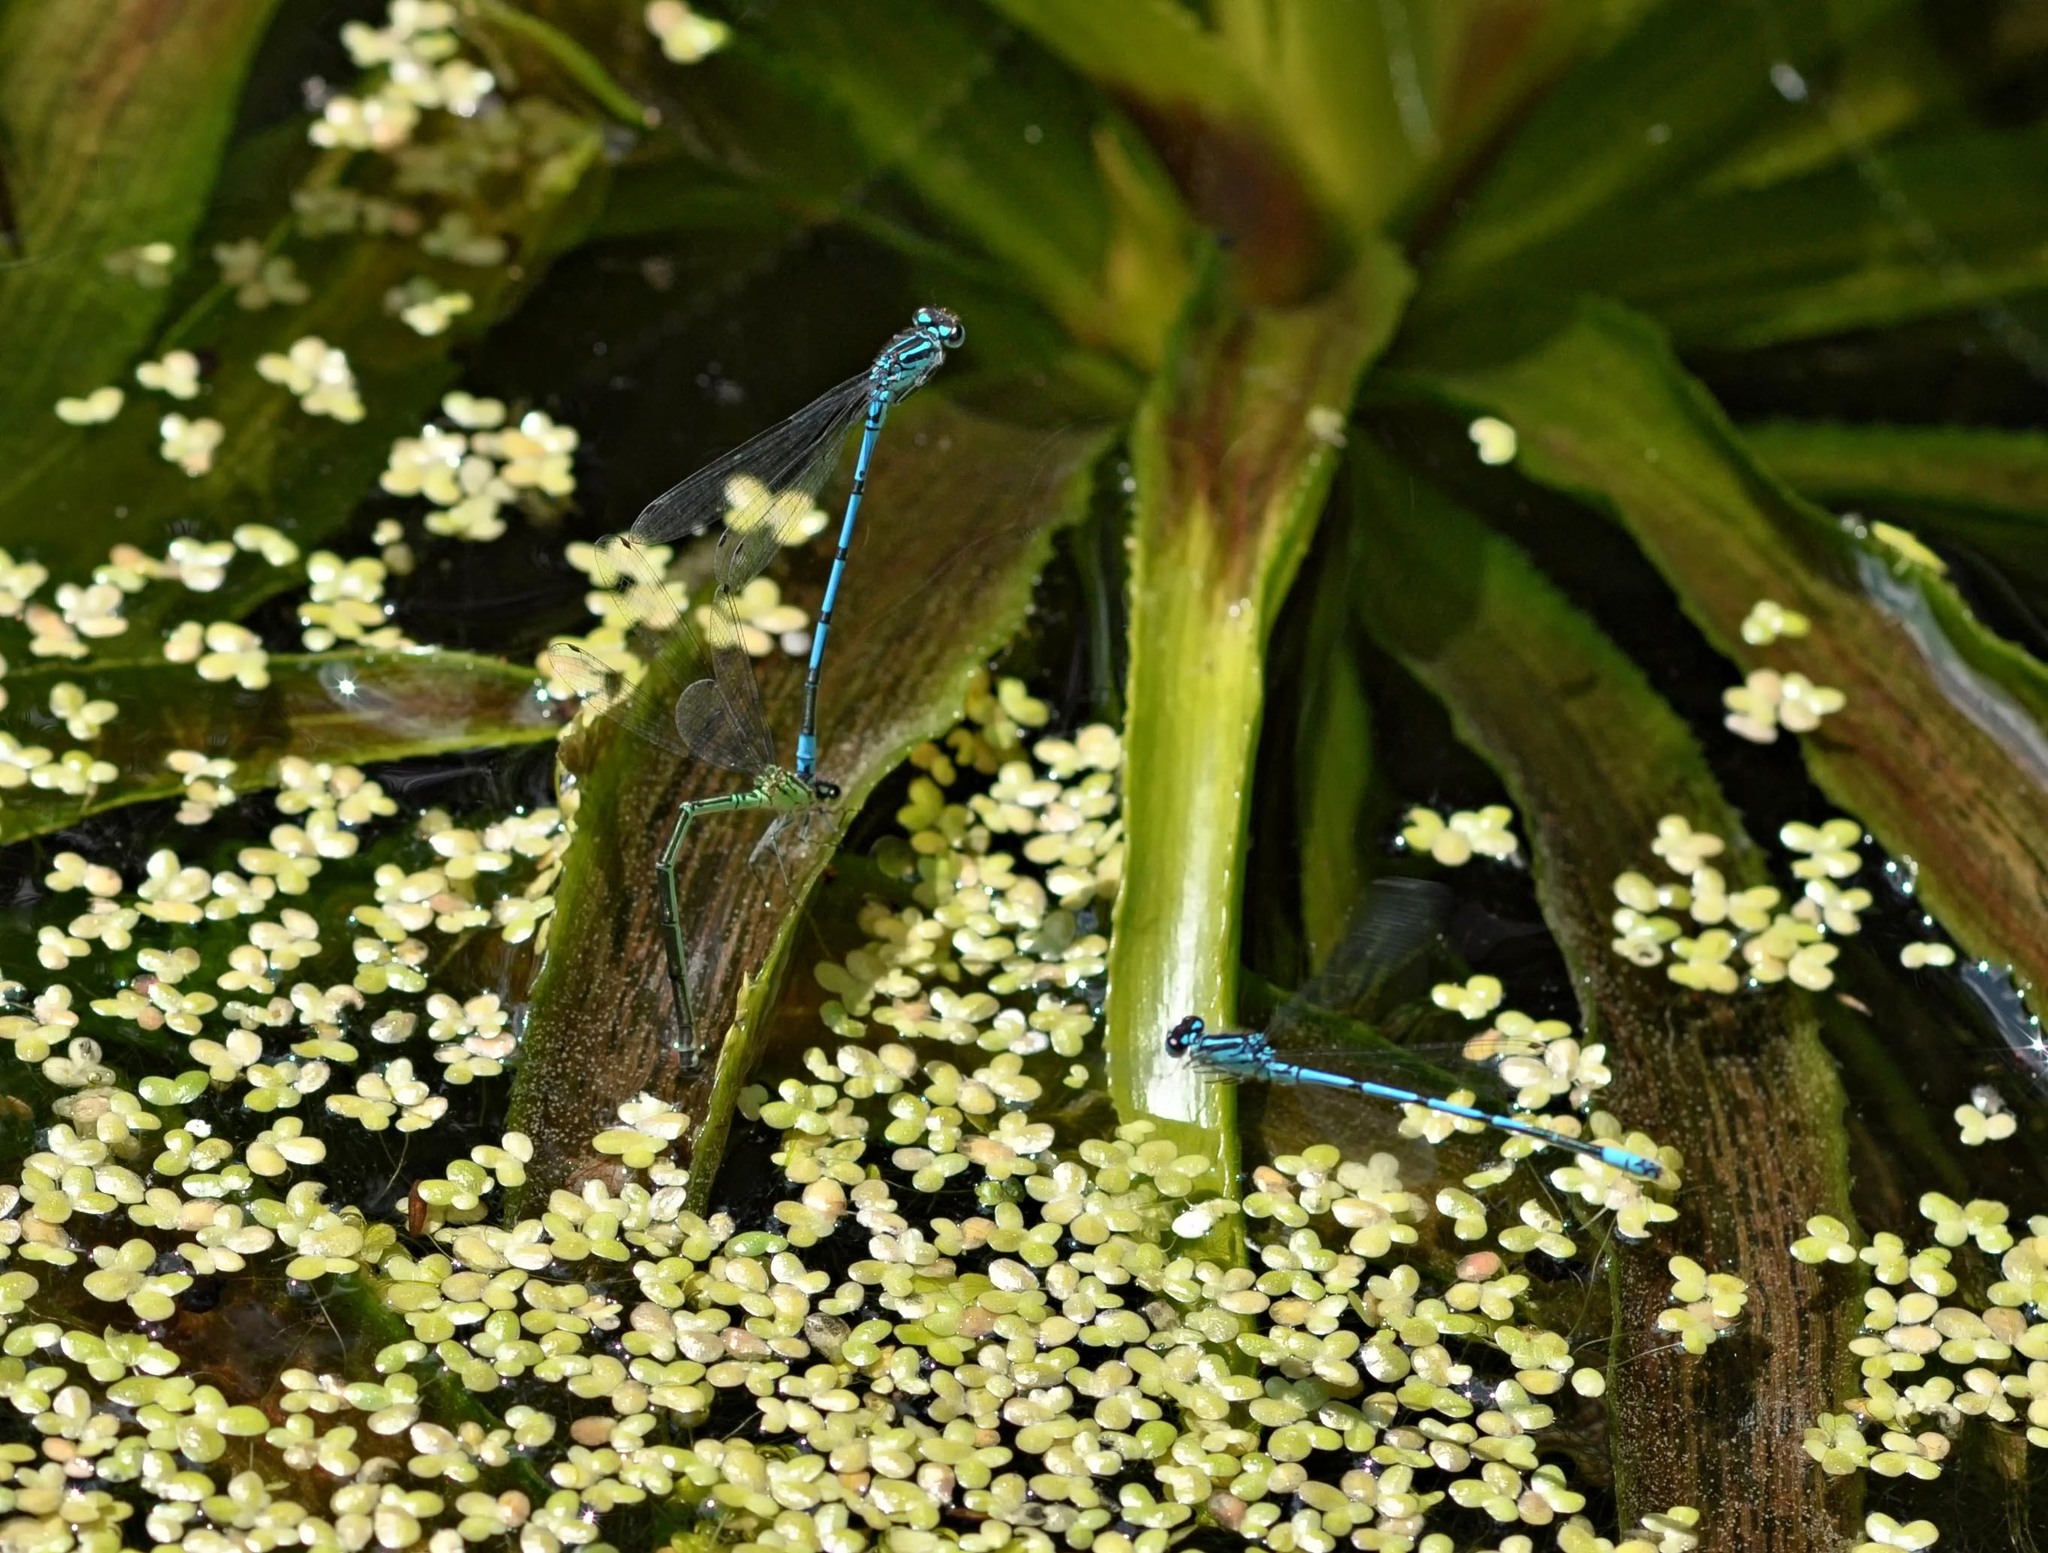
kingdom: Animalia
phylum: Arthropoda
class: Insecta
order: Odonata
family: Coenagrionidae
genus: Coenagrion
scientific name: Coenagrion puella
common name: Azure damselfly
